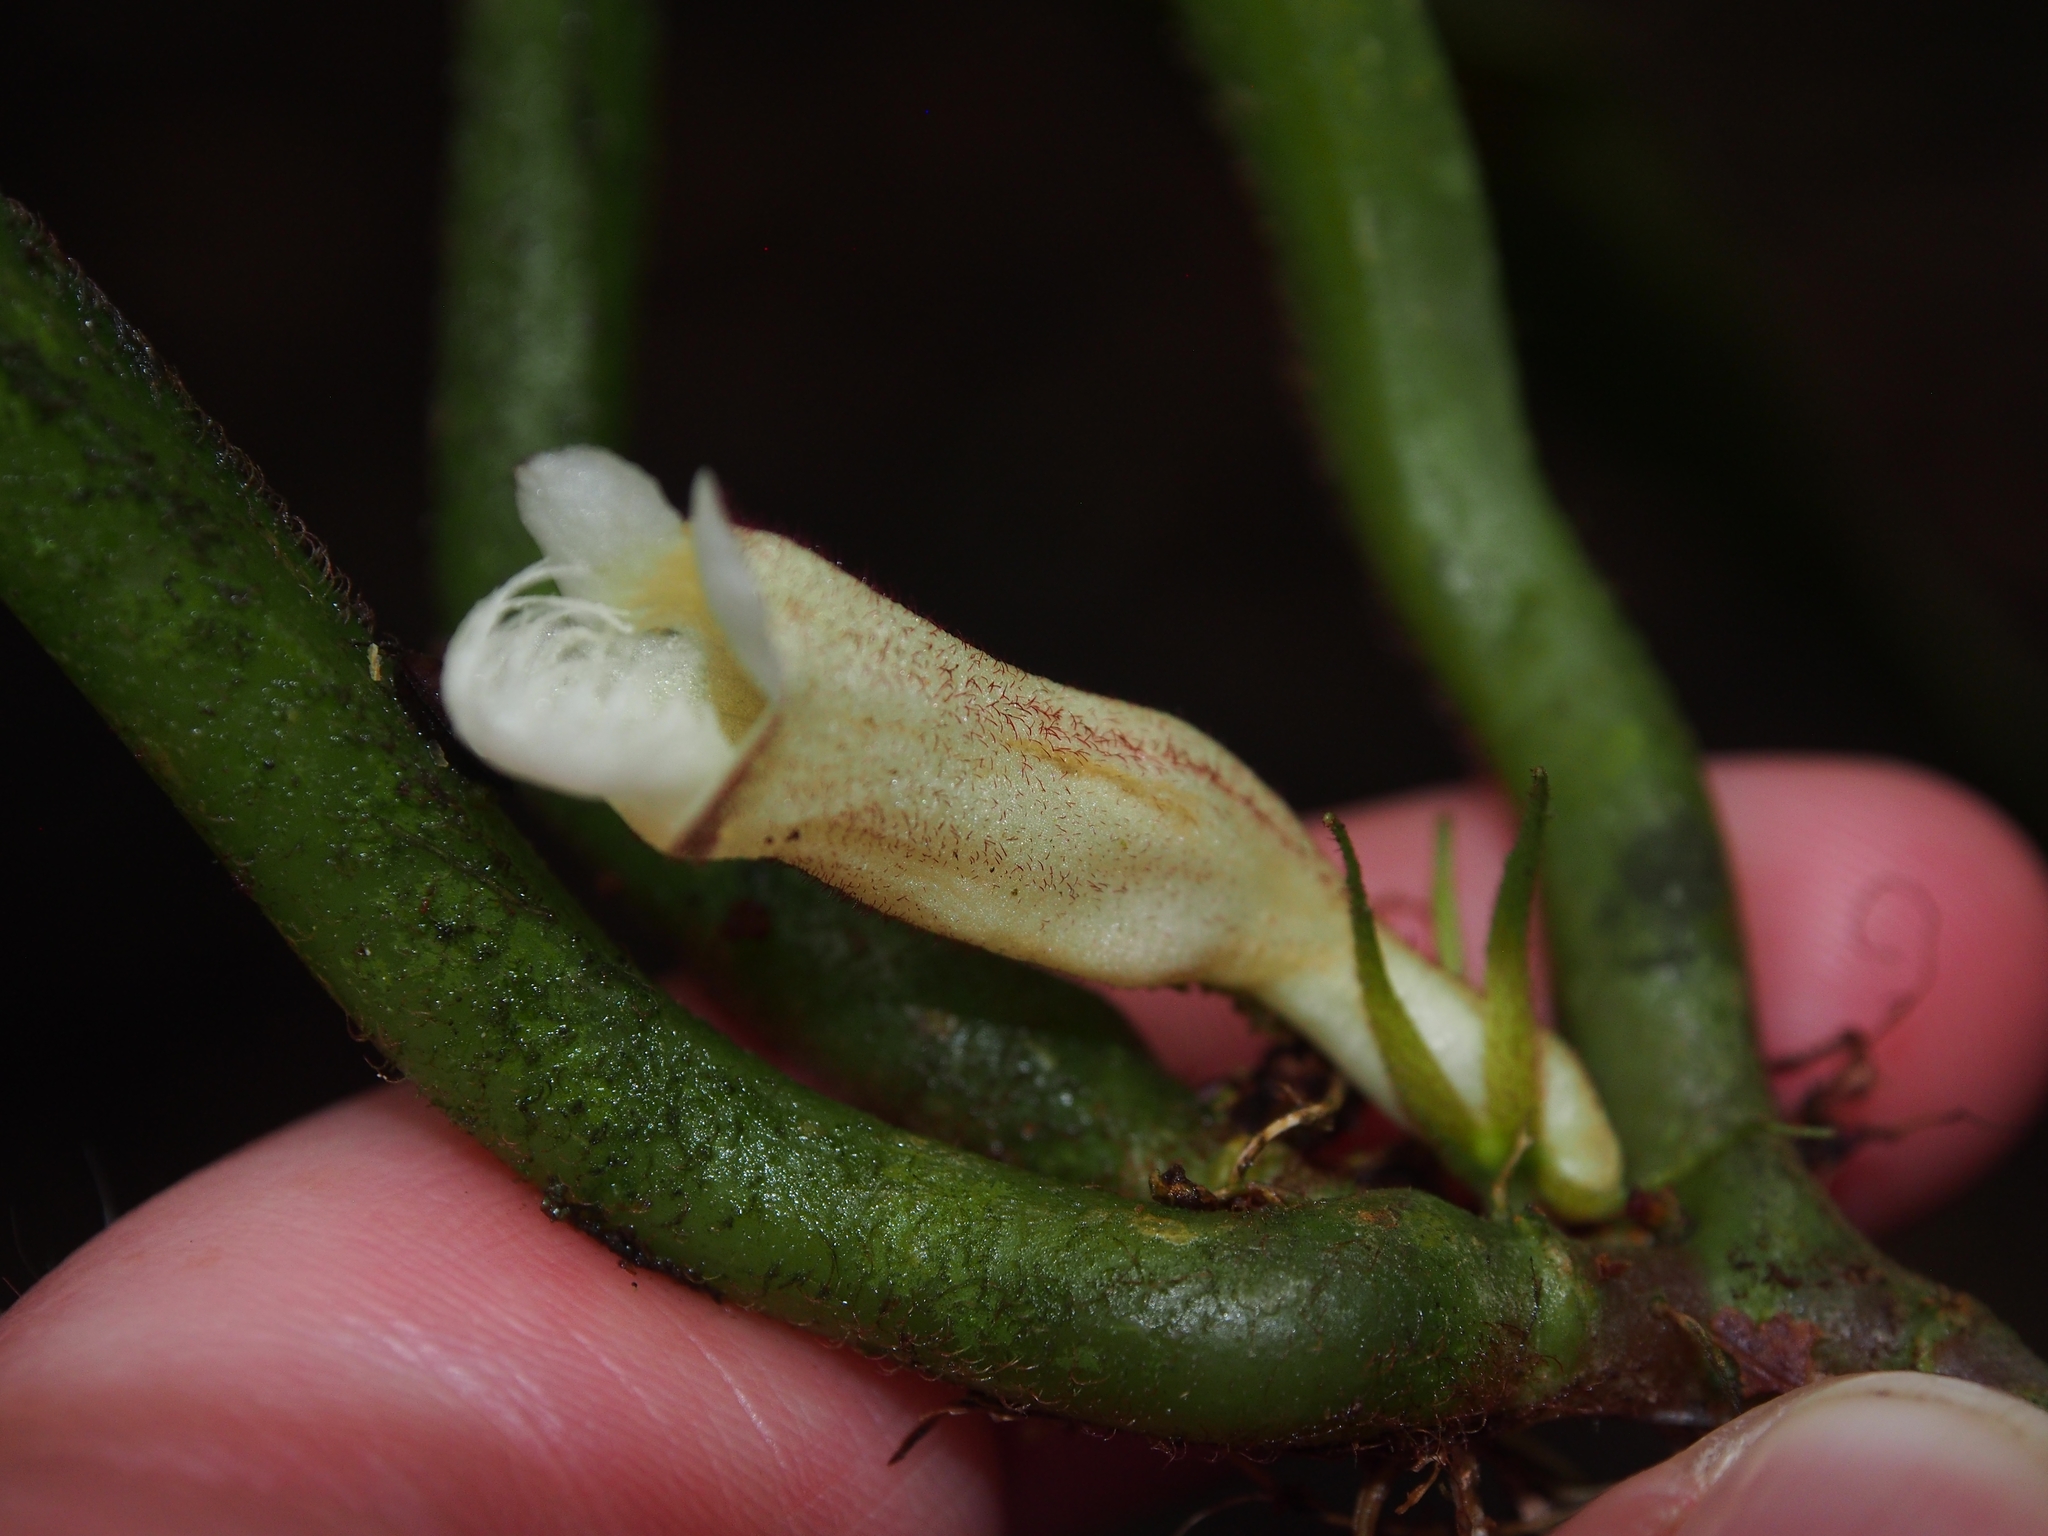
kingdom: Plantae
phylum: Tracheophyta
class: Magnoliopsida
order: Lamiales
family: Gesneriaceae
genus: Paradrymonia
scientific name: Paradrymonia ciliosa
